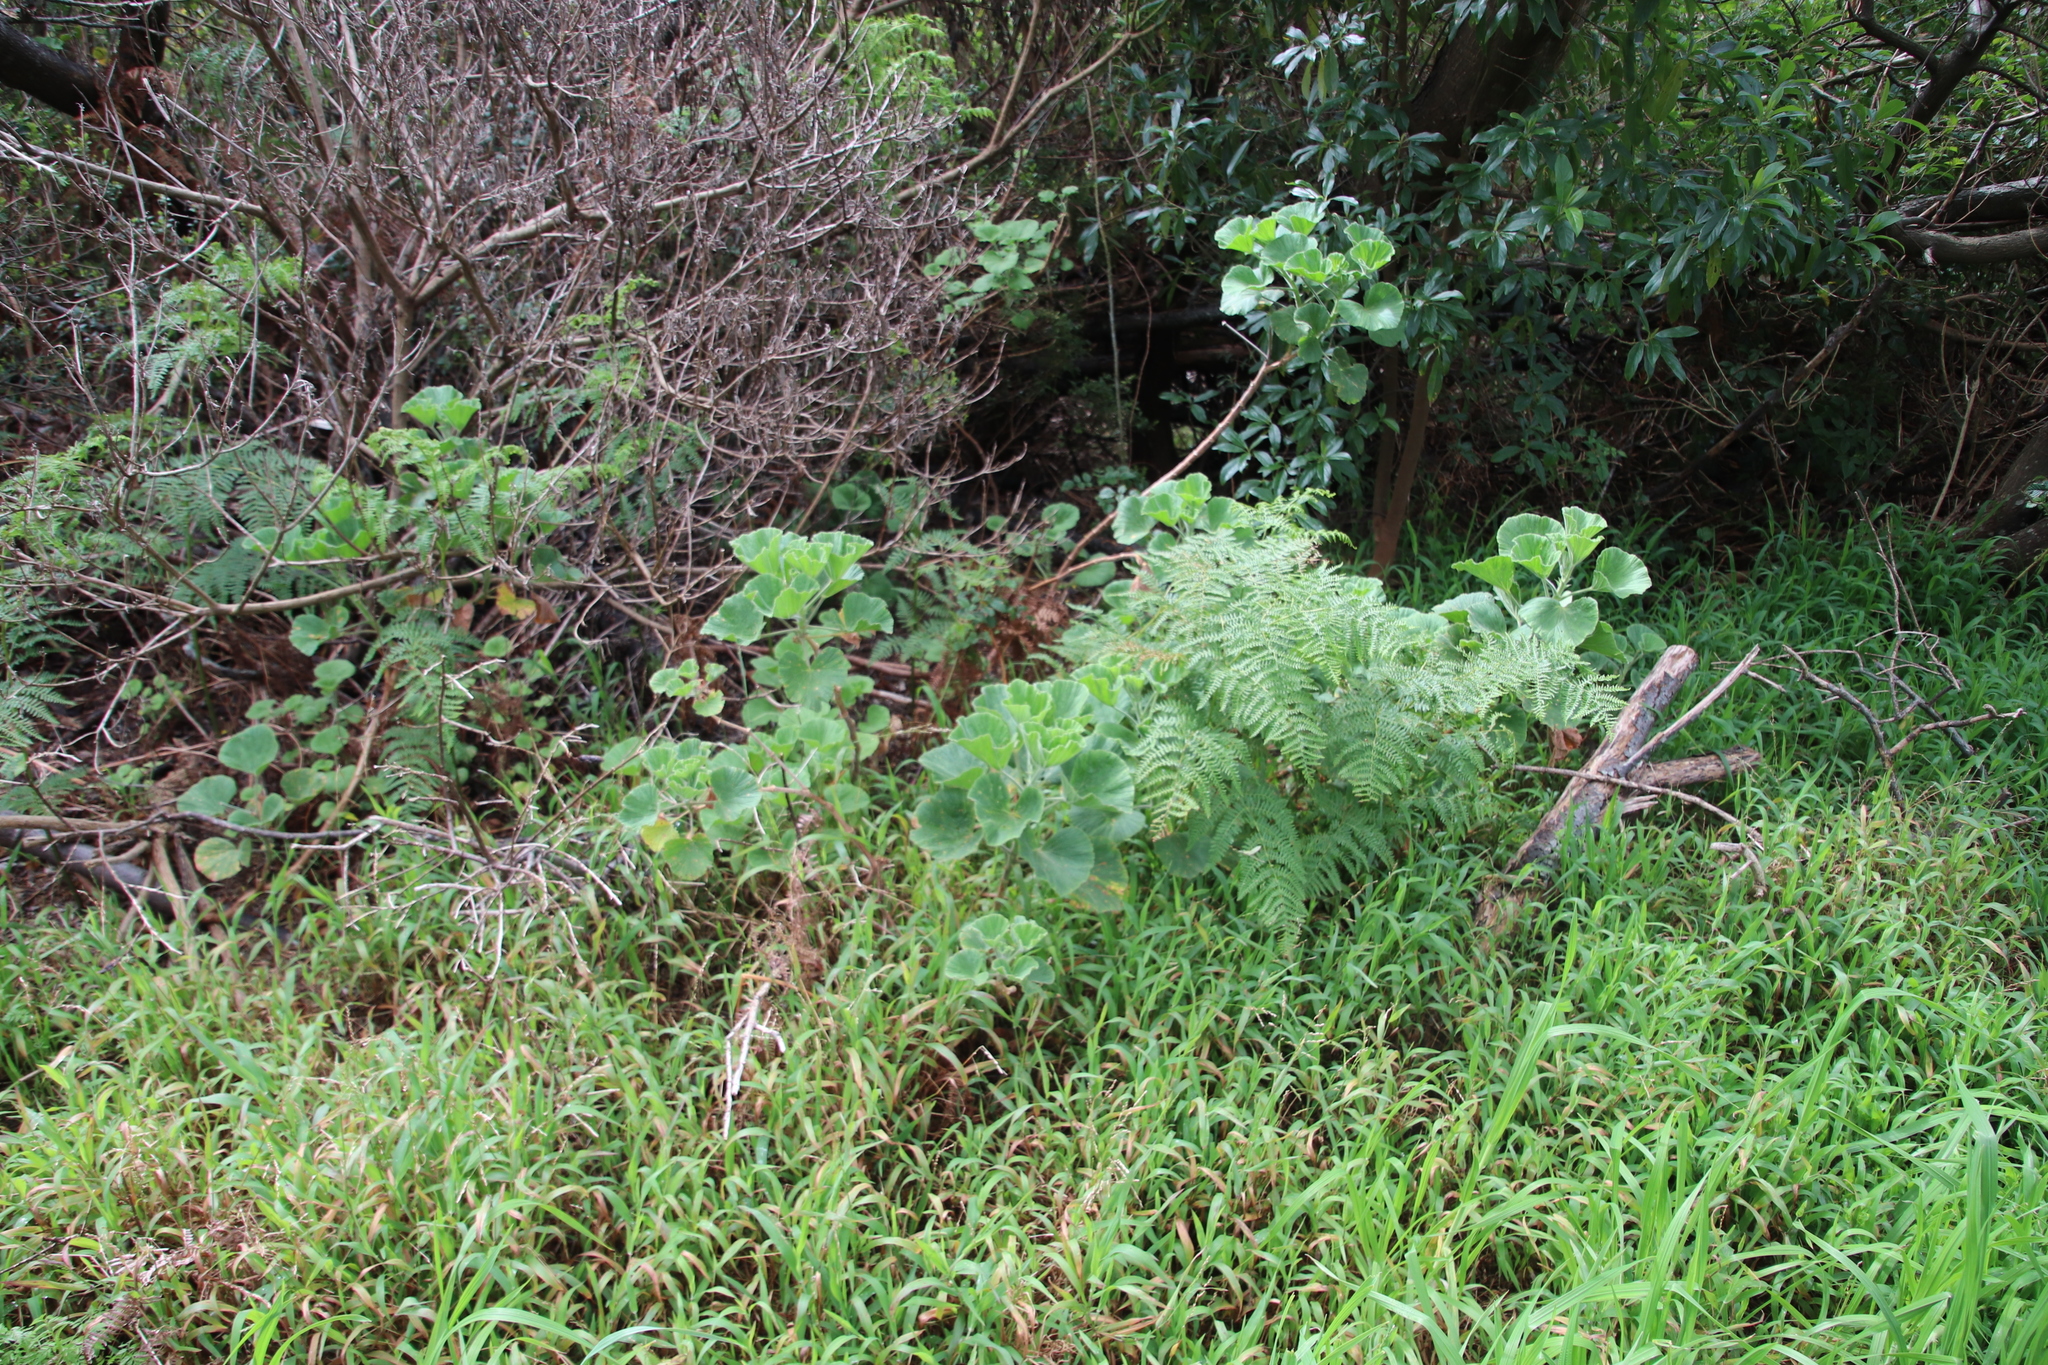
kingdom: Plantae
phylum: Tracheophyta
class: Magnoliopsida
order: Geraniales
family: Geraniaceae
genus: Pelargonium
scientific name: Pelargonium cucullatum
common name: Tree pelargonium
